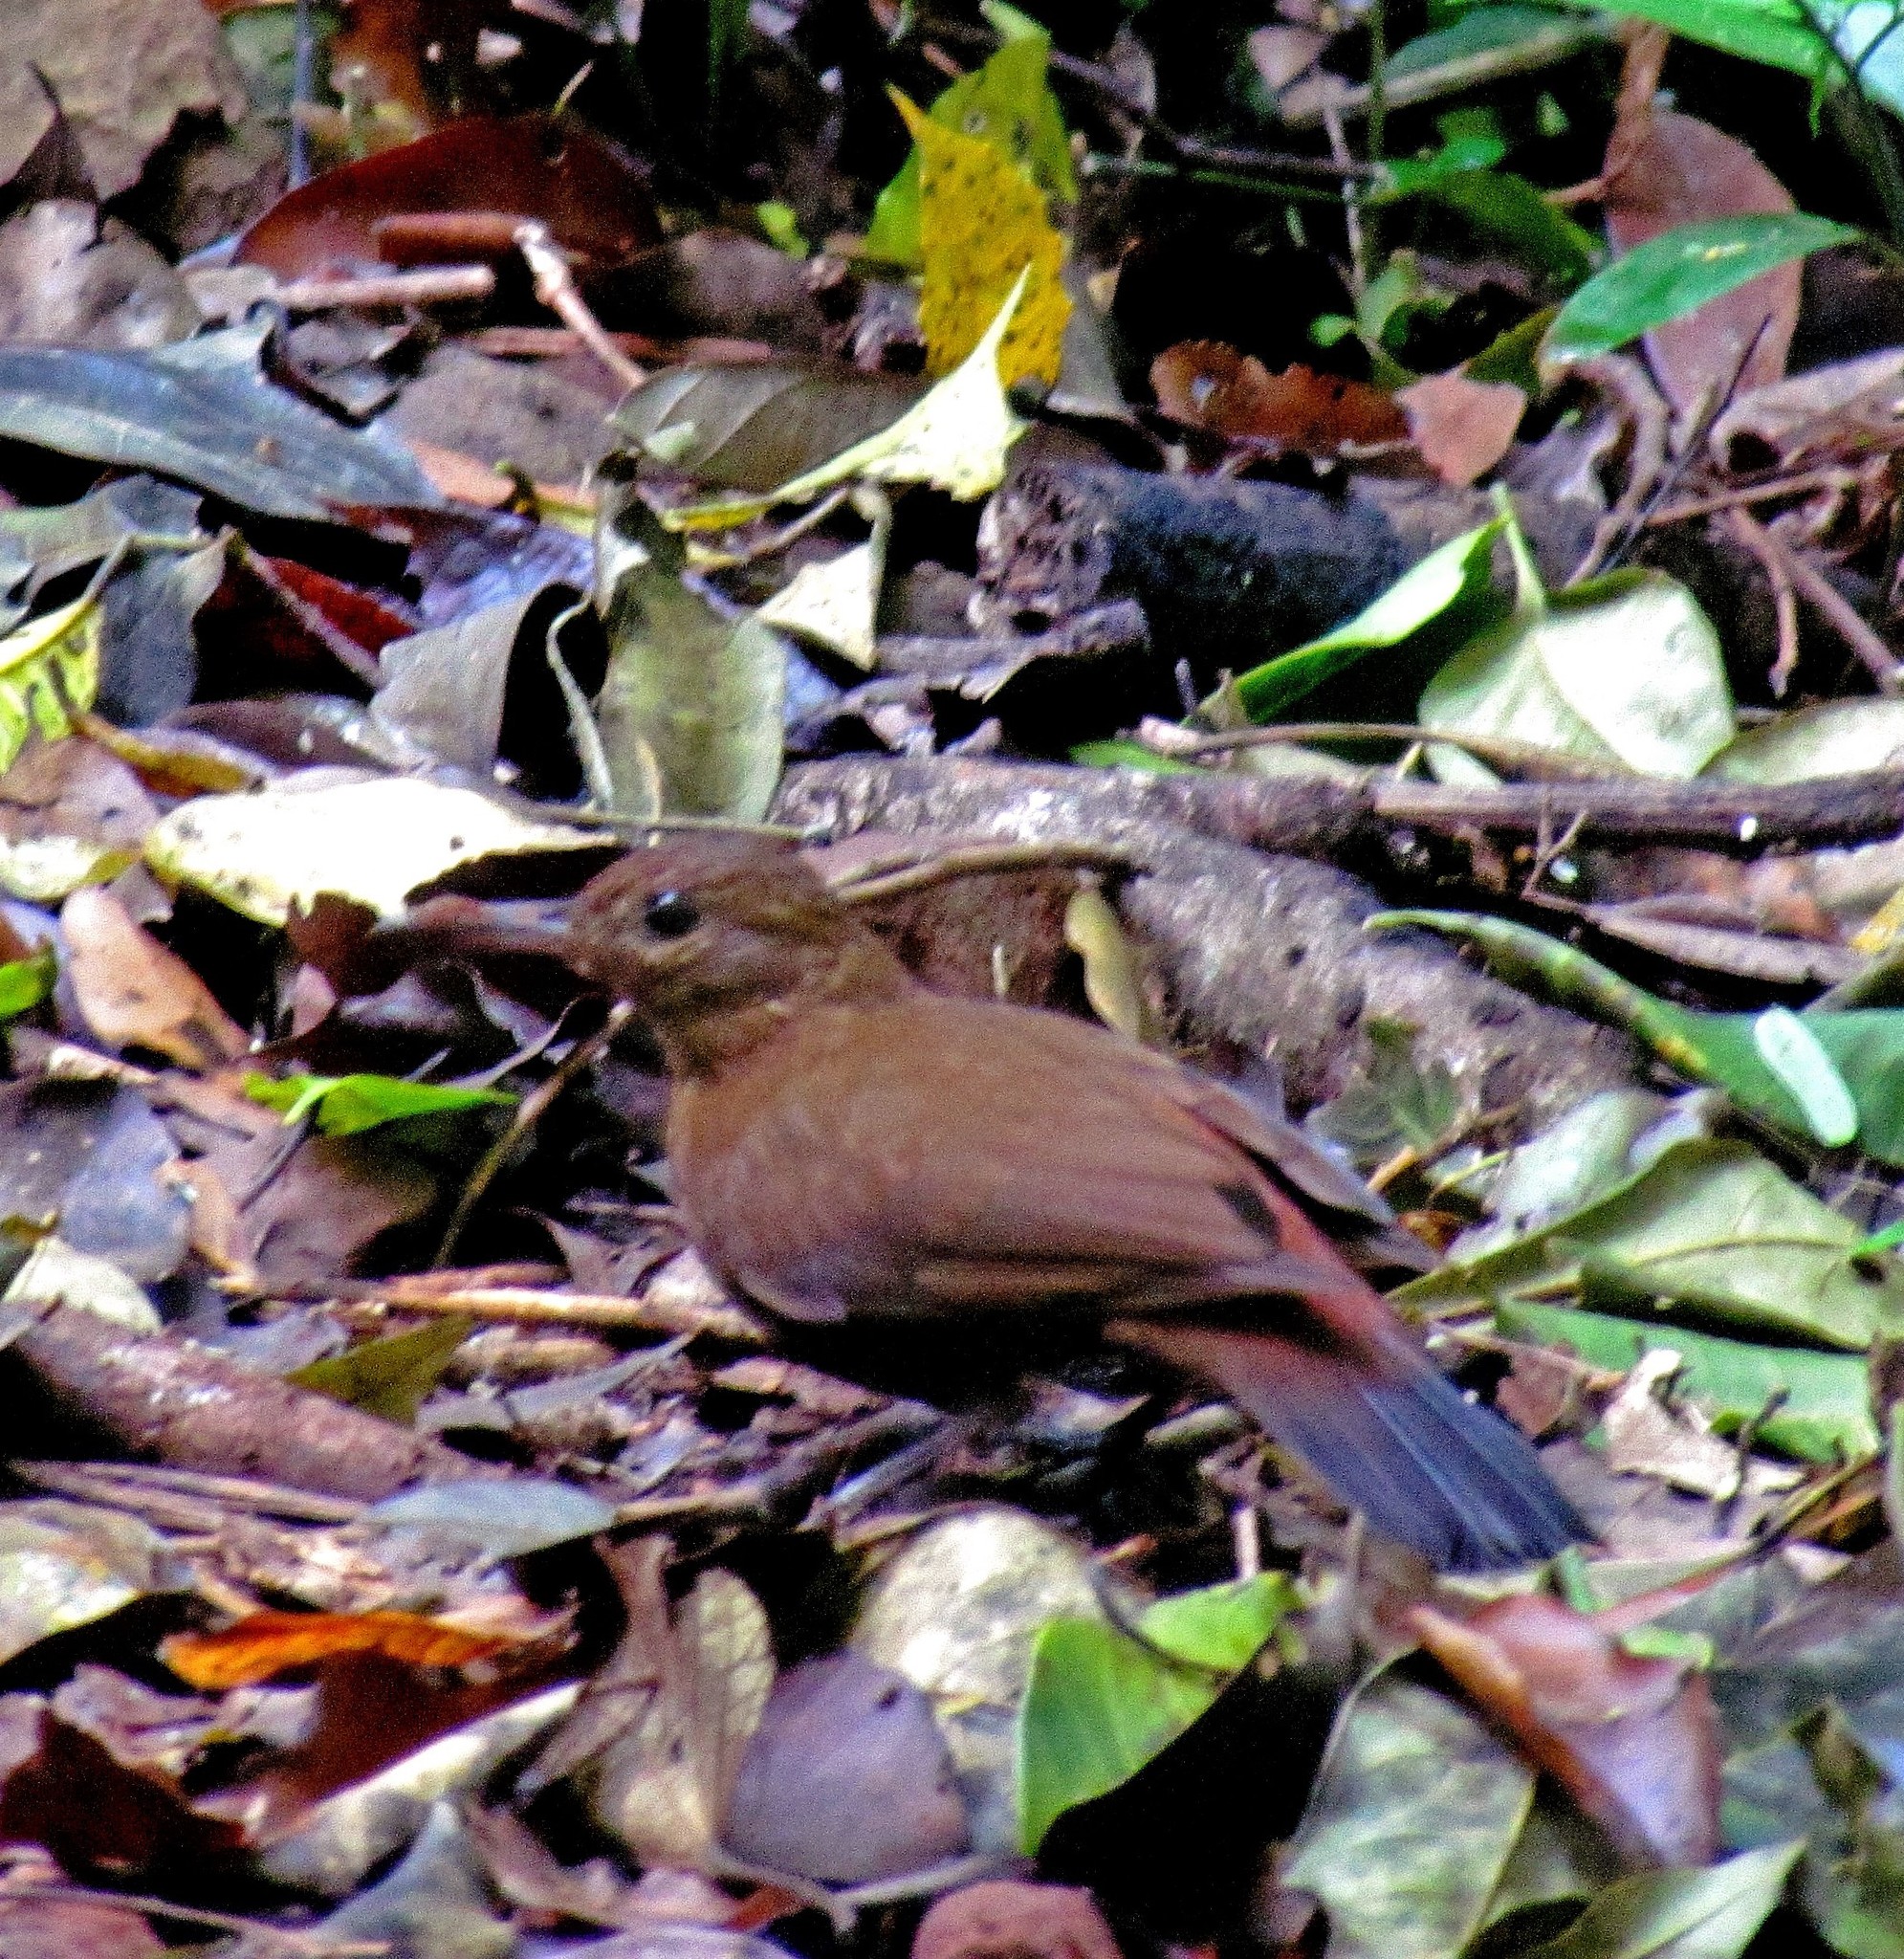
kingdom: Animalia
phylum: Chordata
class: Aves
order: Passeriformes
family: Furnariidae
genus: Sclerurus
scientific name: Sclerurus scansor
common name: Rufous-breasted leaftosser
